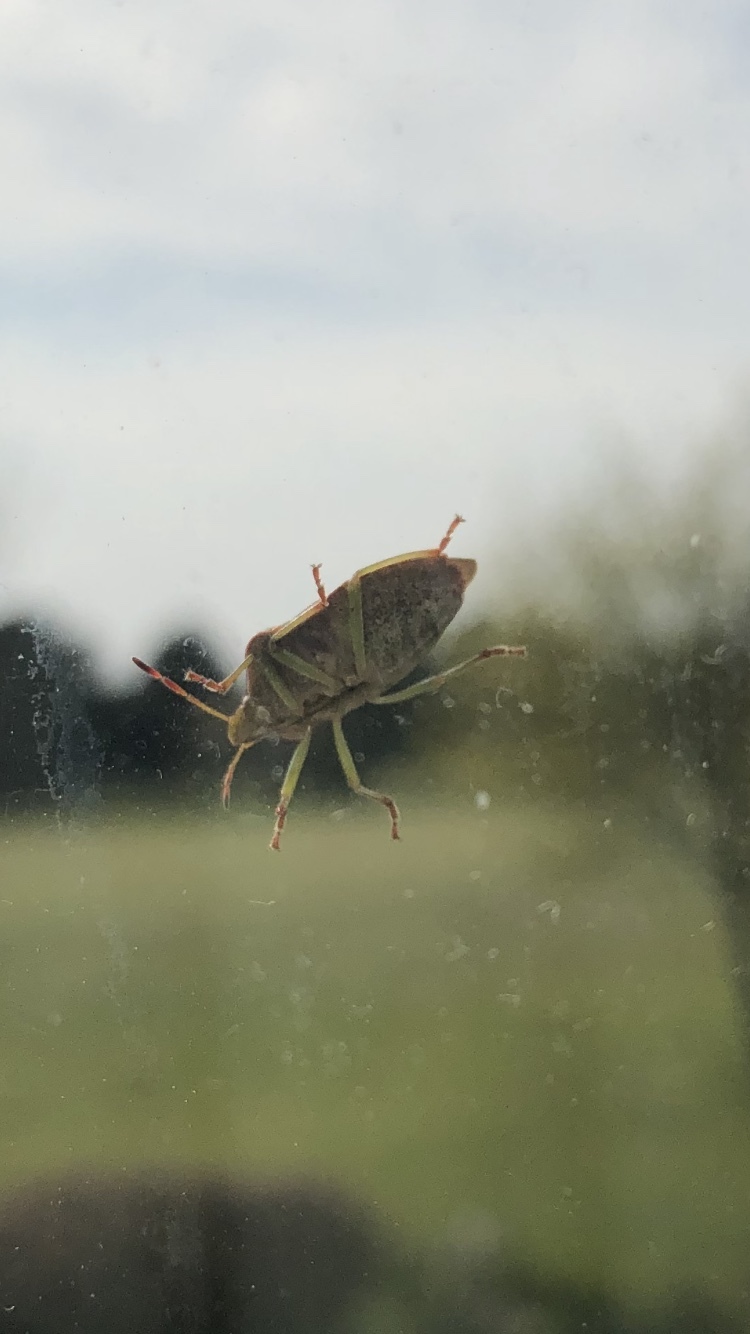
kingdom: Animalia
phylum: Arthropoda
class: Insecta
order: Hemiptera
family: Pentatomidae
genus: Palomena
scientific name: Palomena prasina
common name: Green shieldbug
